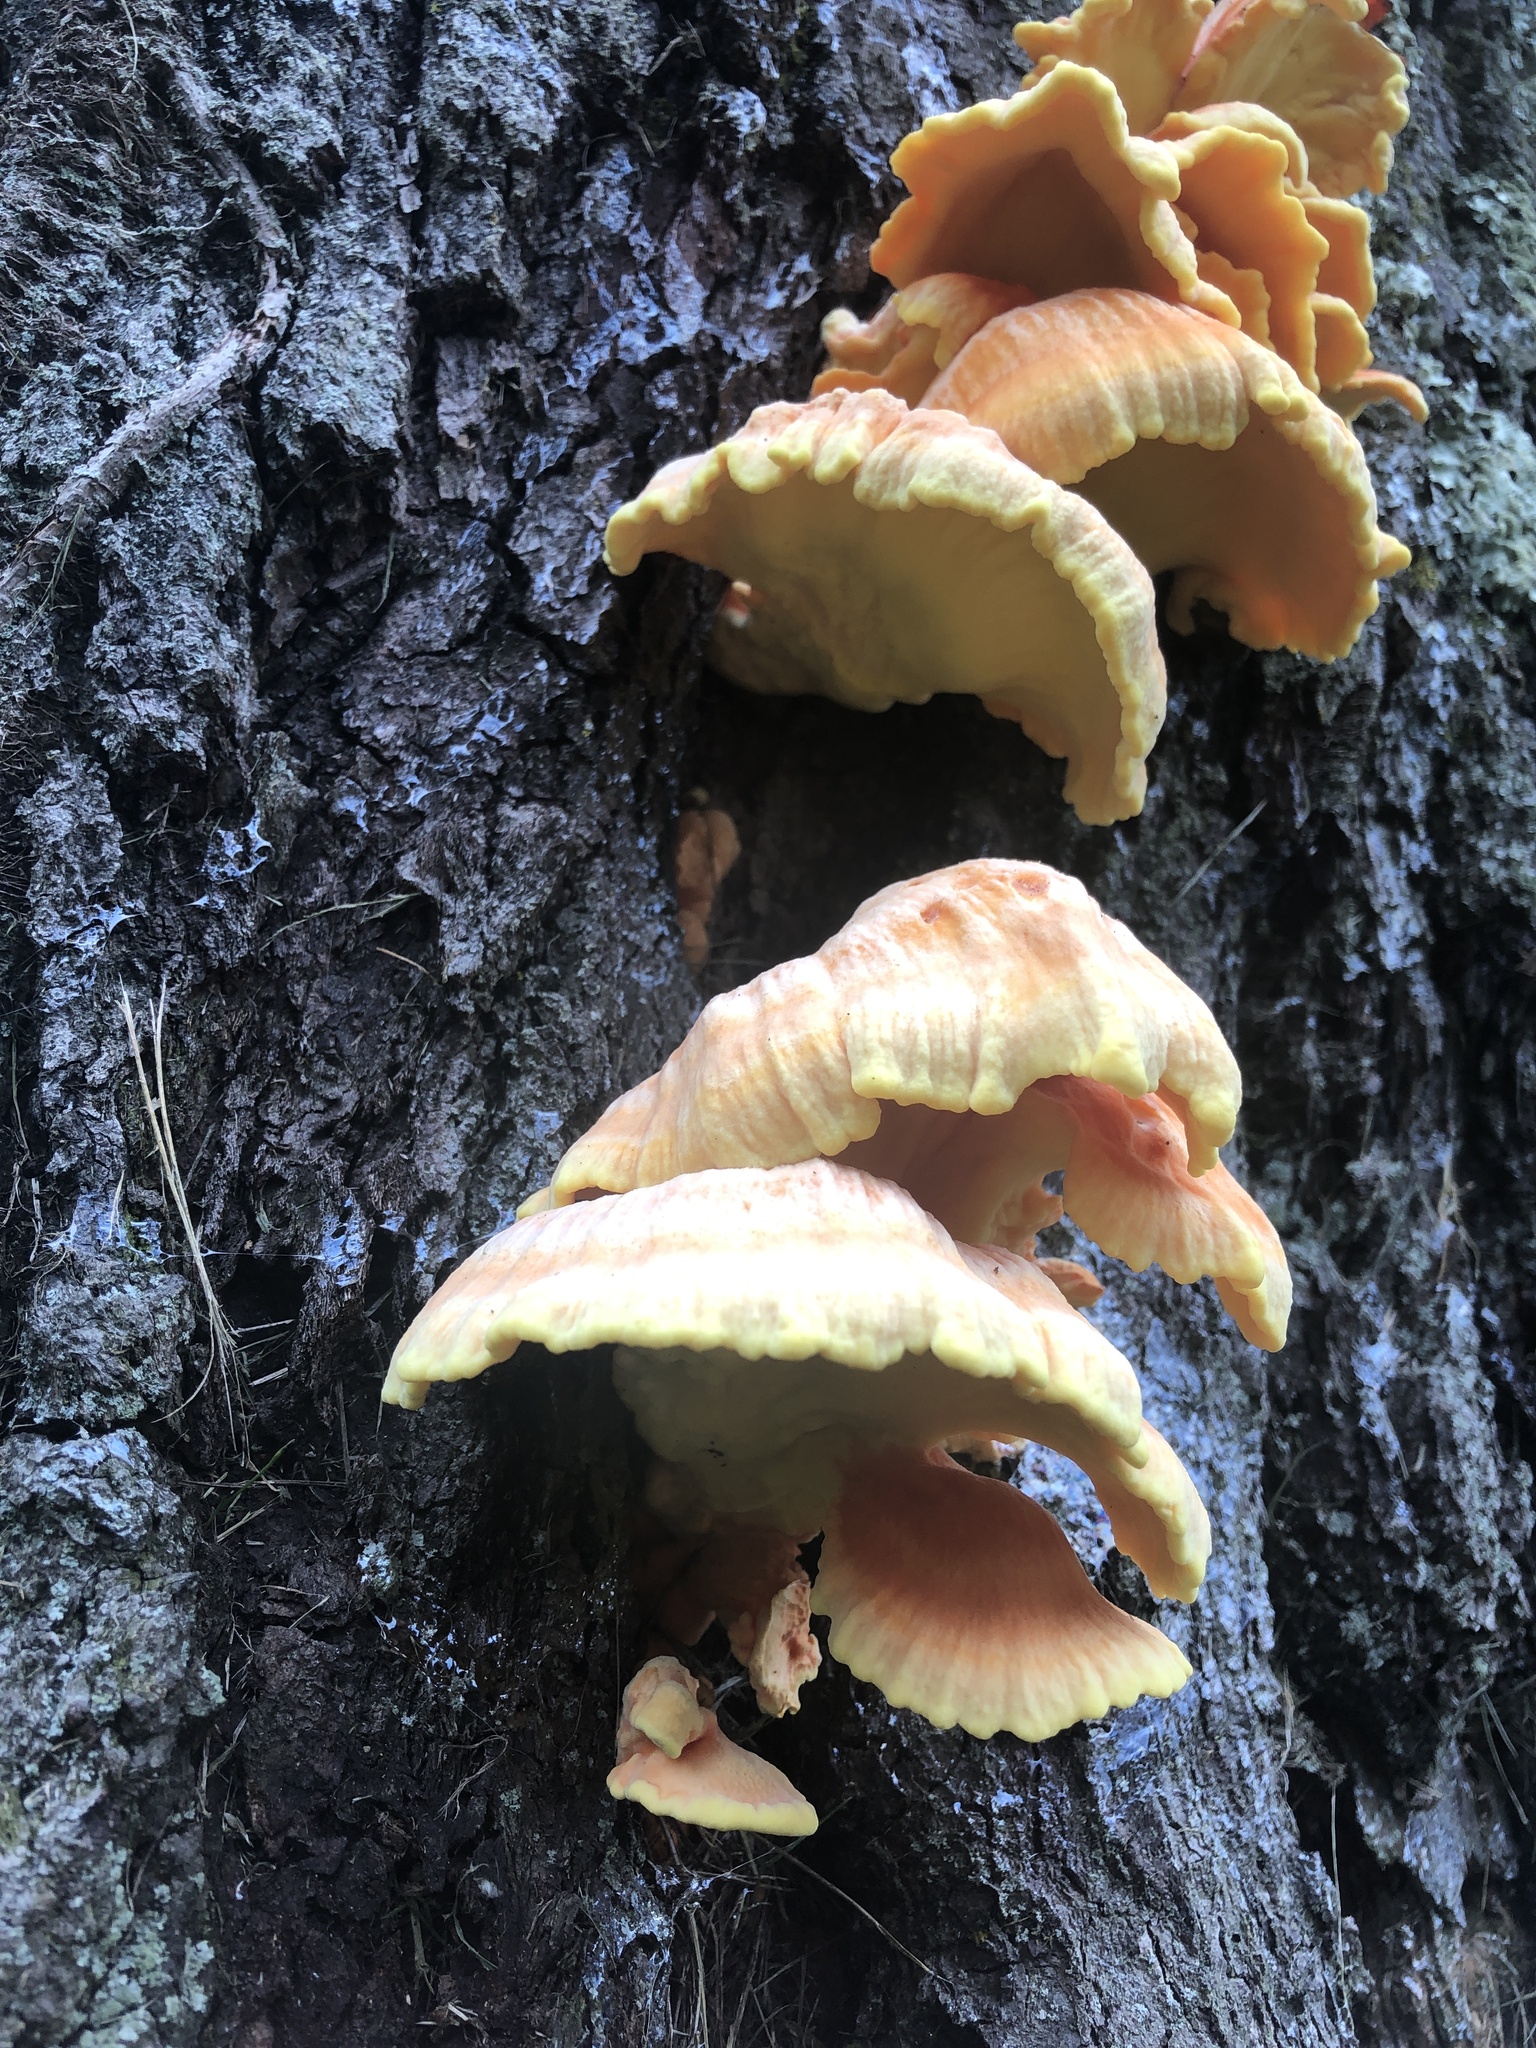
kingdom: Fungi
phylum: Basidiomycota
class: Agaricomycetes
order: Polyporales
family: Laetiporaceae
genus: Laetiporus
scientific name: Laetiporus sulphureus
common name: Chicken of the woods
